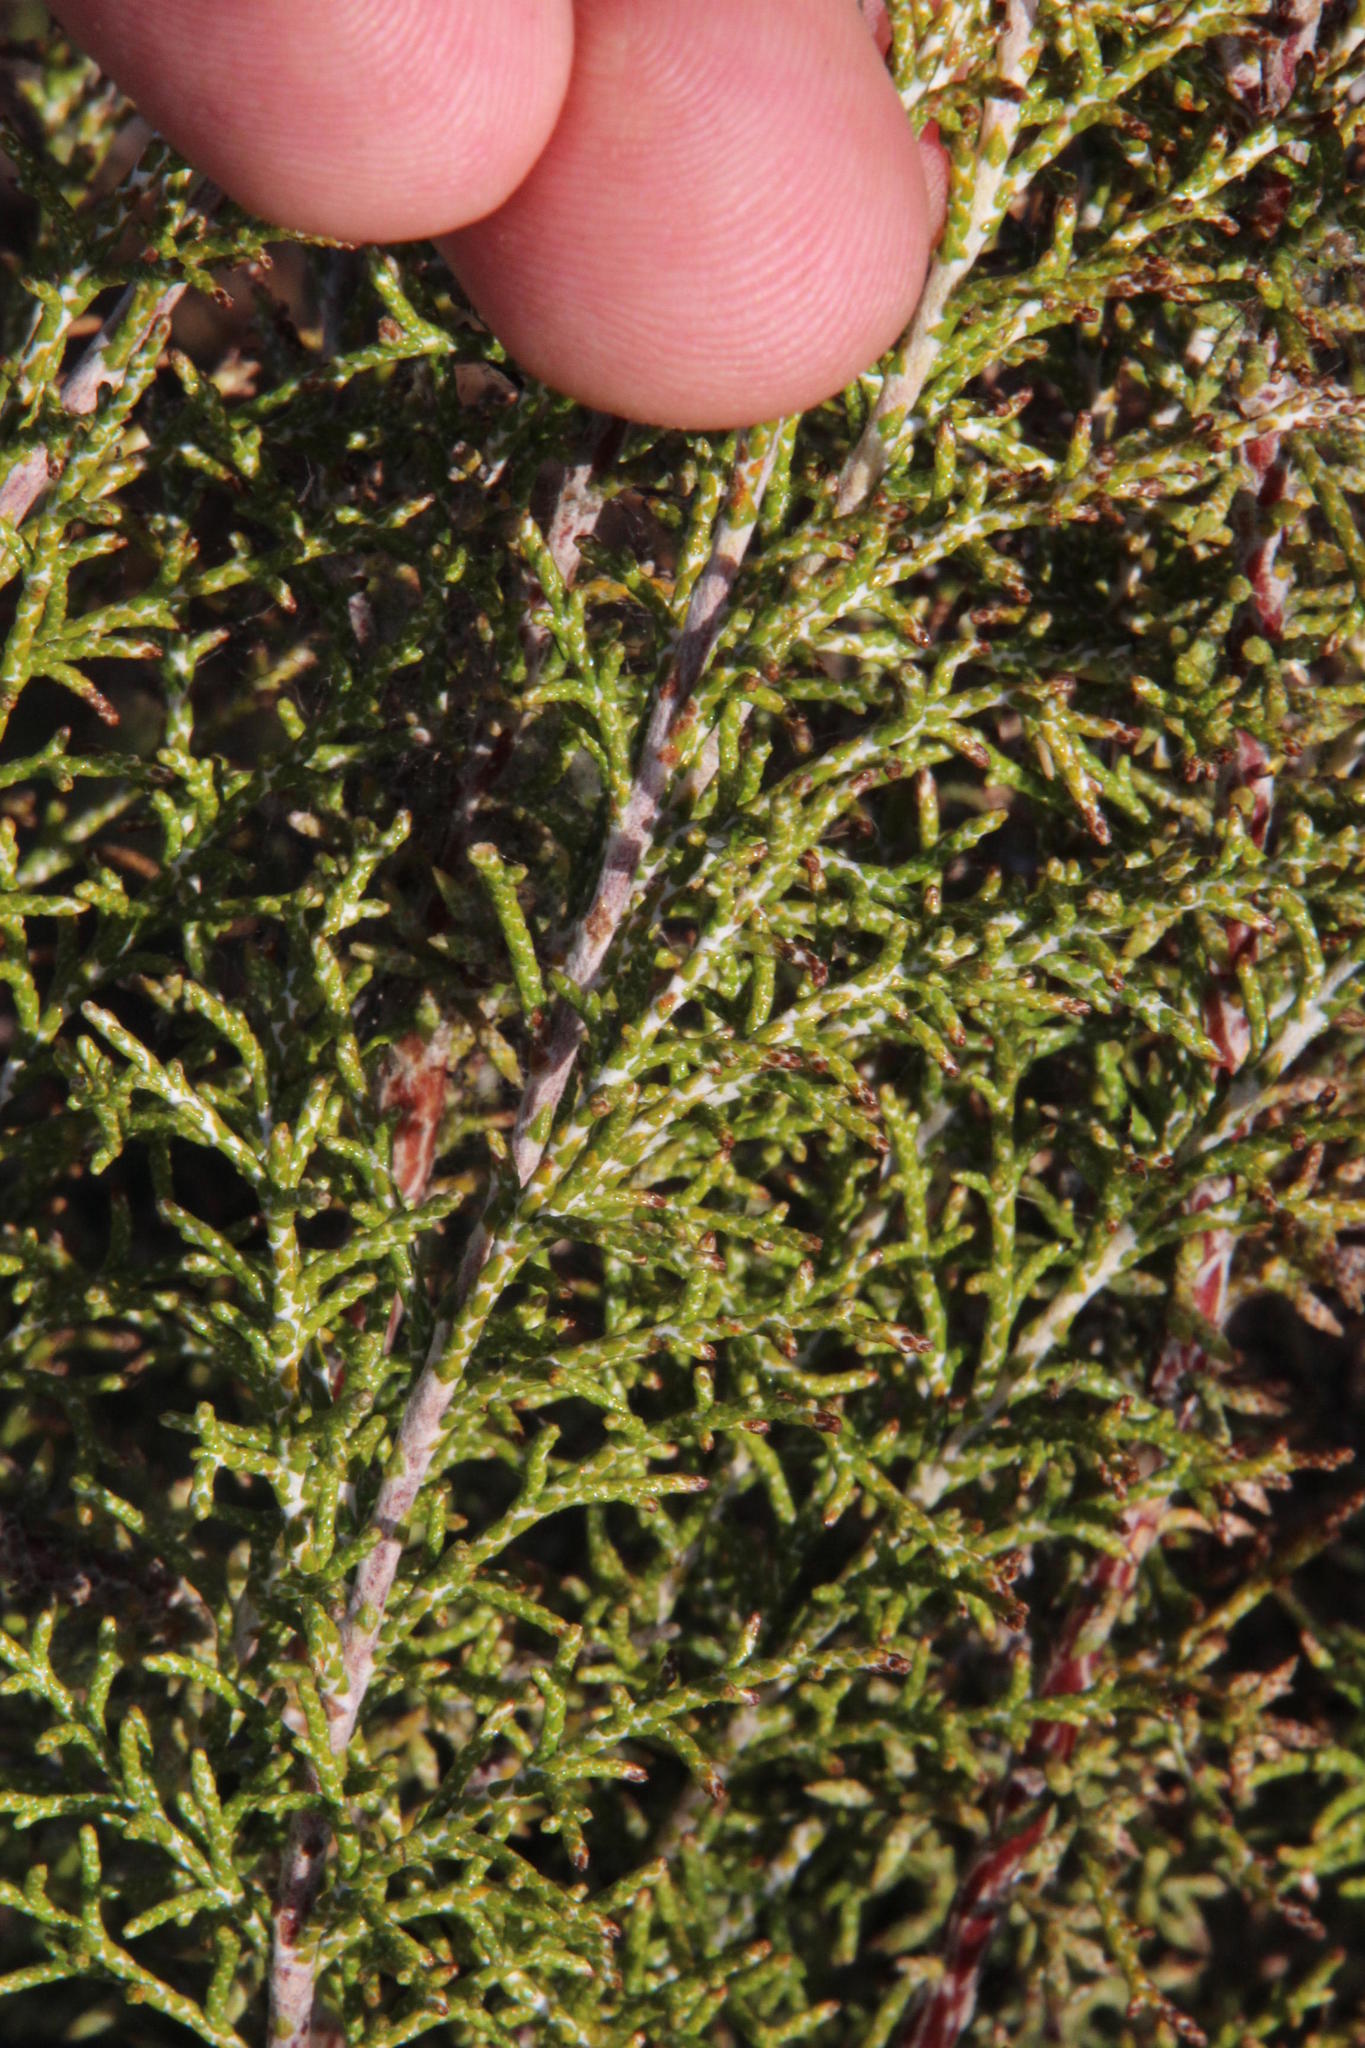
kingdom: Plantae
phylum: Tracheophyta
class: Magnoliopsida
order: Asterales
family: Asteraceae
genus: Dicerothamnus
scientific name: Dicerothamnus rhinocerotis
